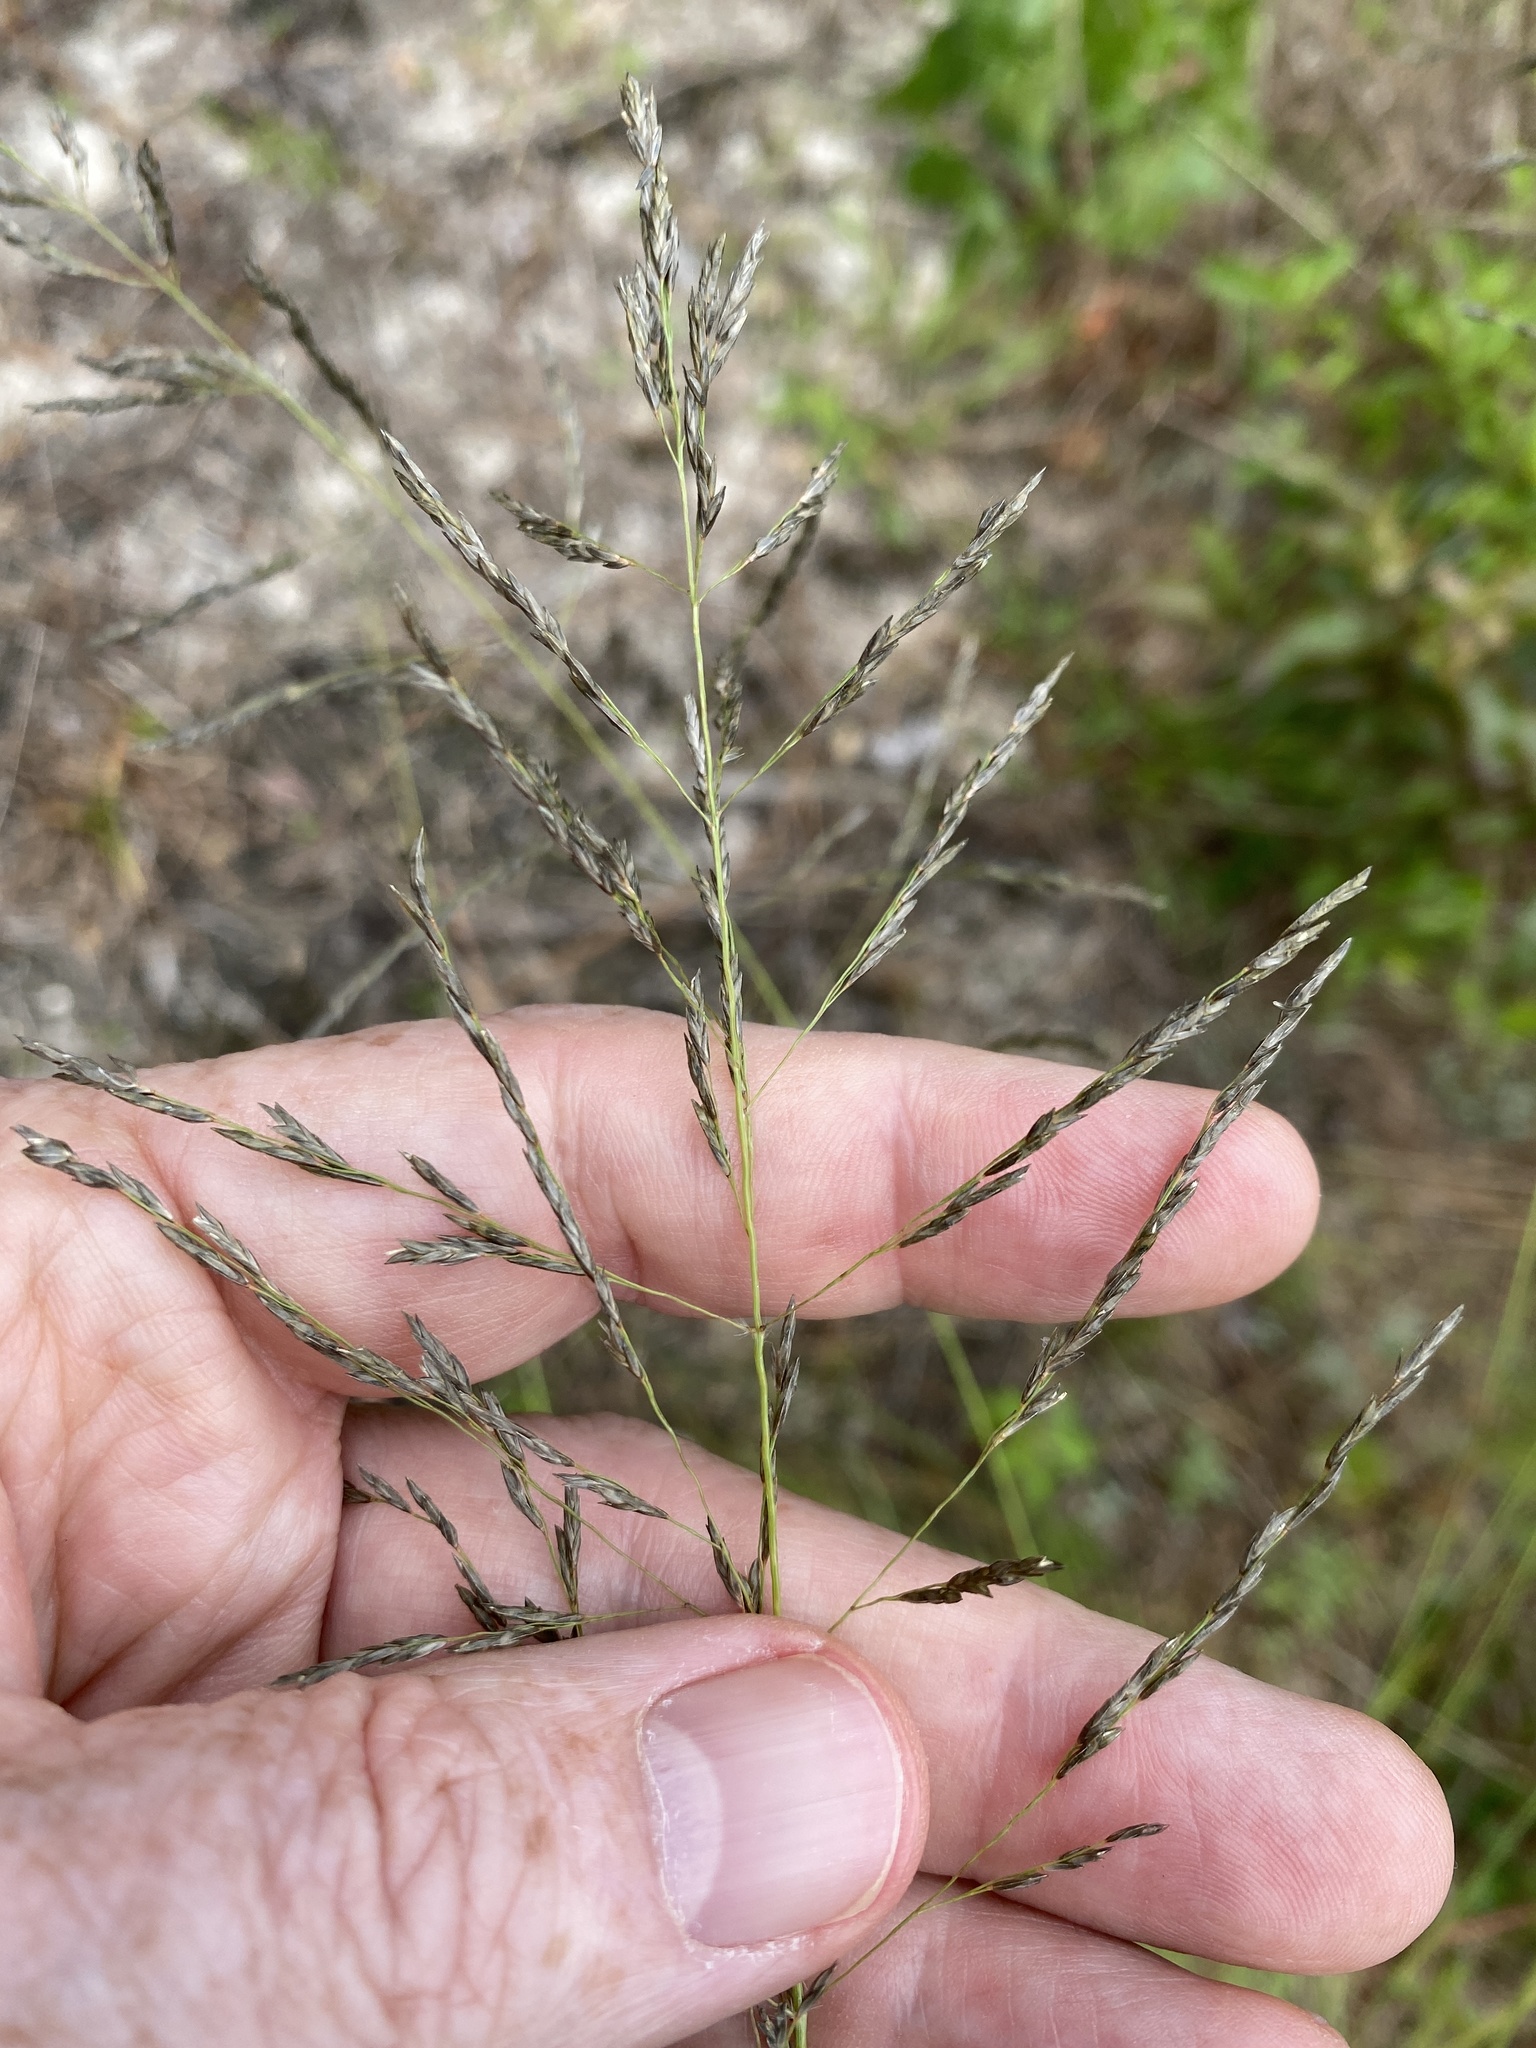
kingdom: Plantae
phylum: Tracheophyta
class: Liliopsida
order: Poales
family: Poaceae
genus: Eragrostis
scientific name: Eragrostis curvula
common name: African love-grass
